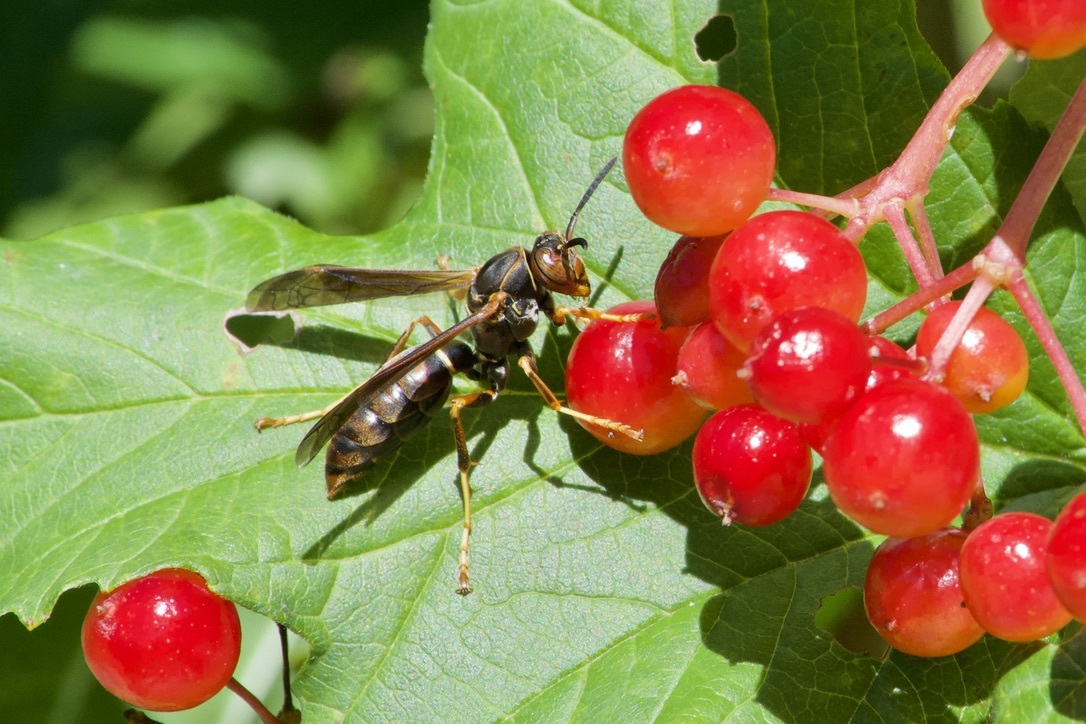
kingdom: Animalia
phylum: Arthropoda
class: Insecta
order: Hymenoptera
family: Eumenidae
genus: Polistes
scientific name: Polistes fuscatus
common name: Dark paper wasp
